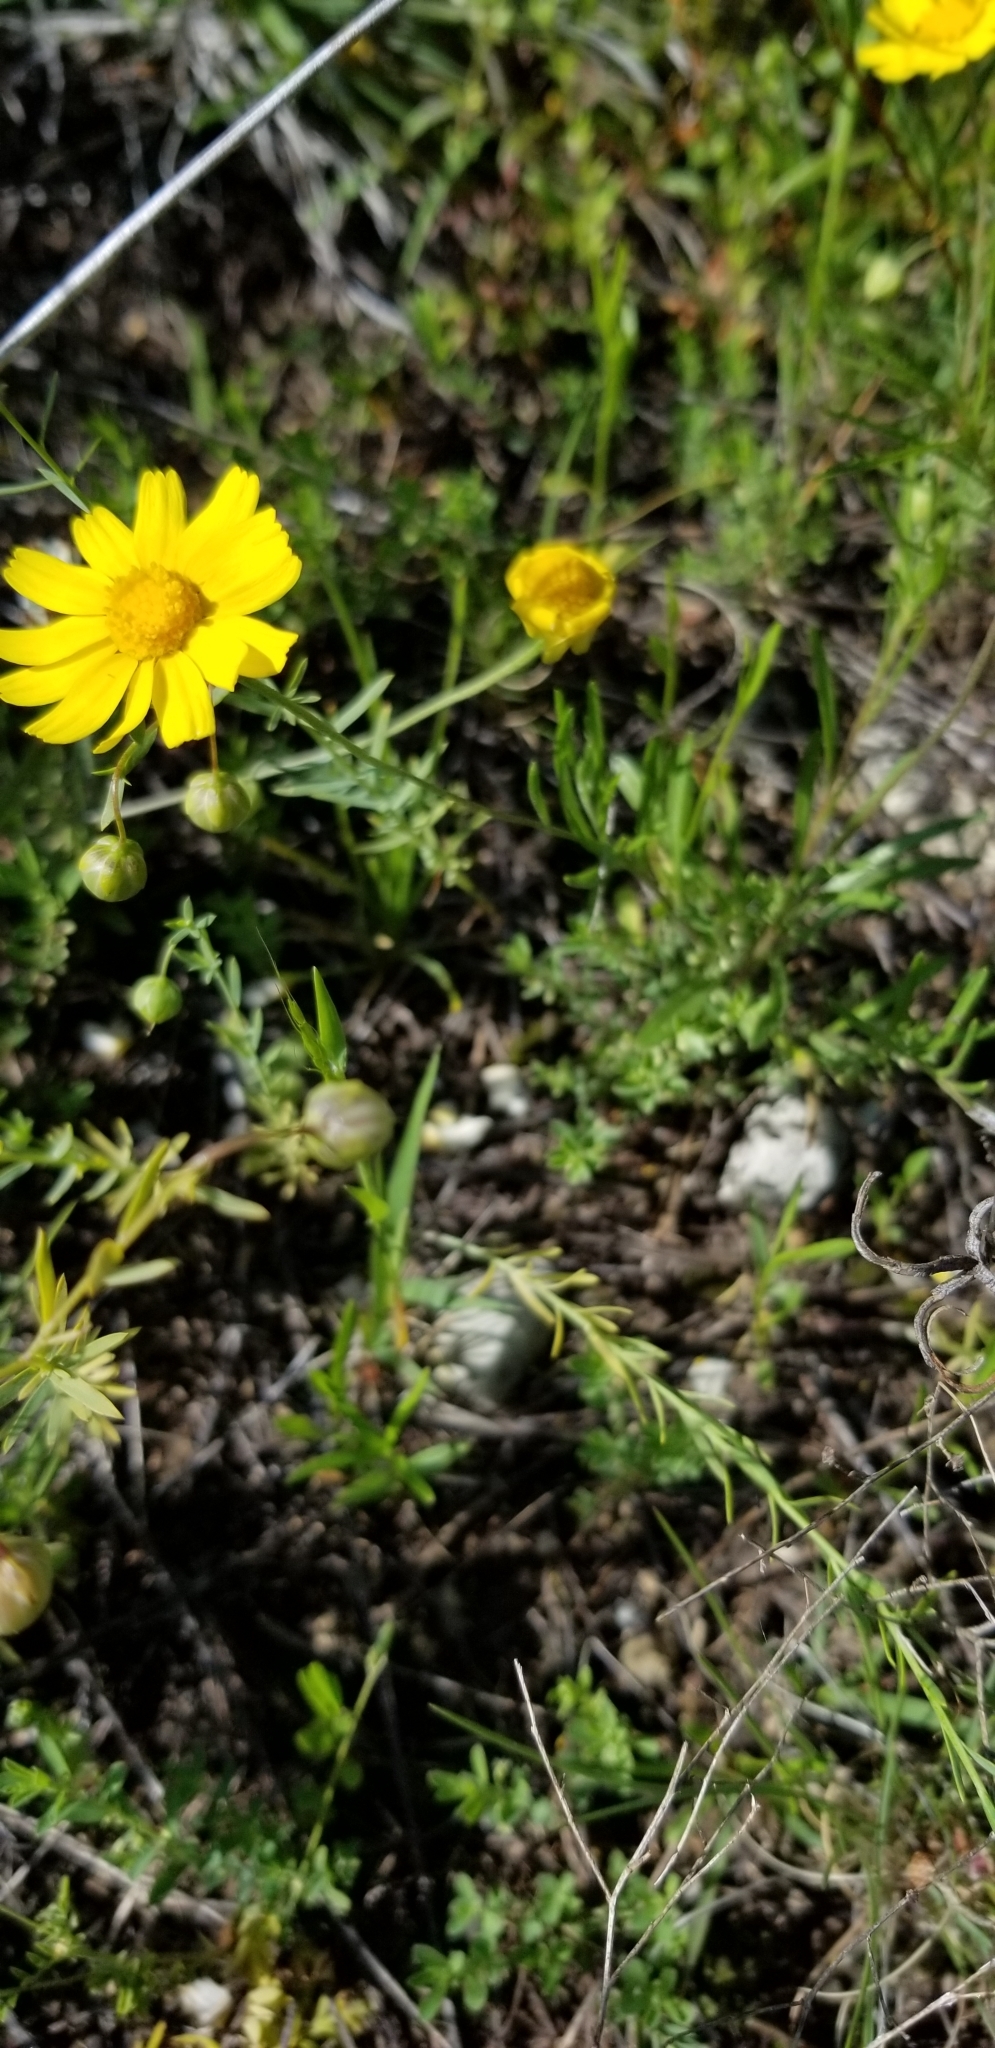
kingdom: Plantae
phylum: Tracheophyta
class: Magnoliopsida
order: Asterales
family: Asteraceae
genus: Tetraneuris
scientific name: Tetraneuris linearifolia
